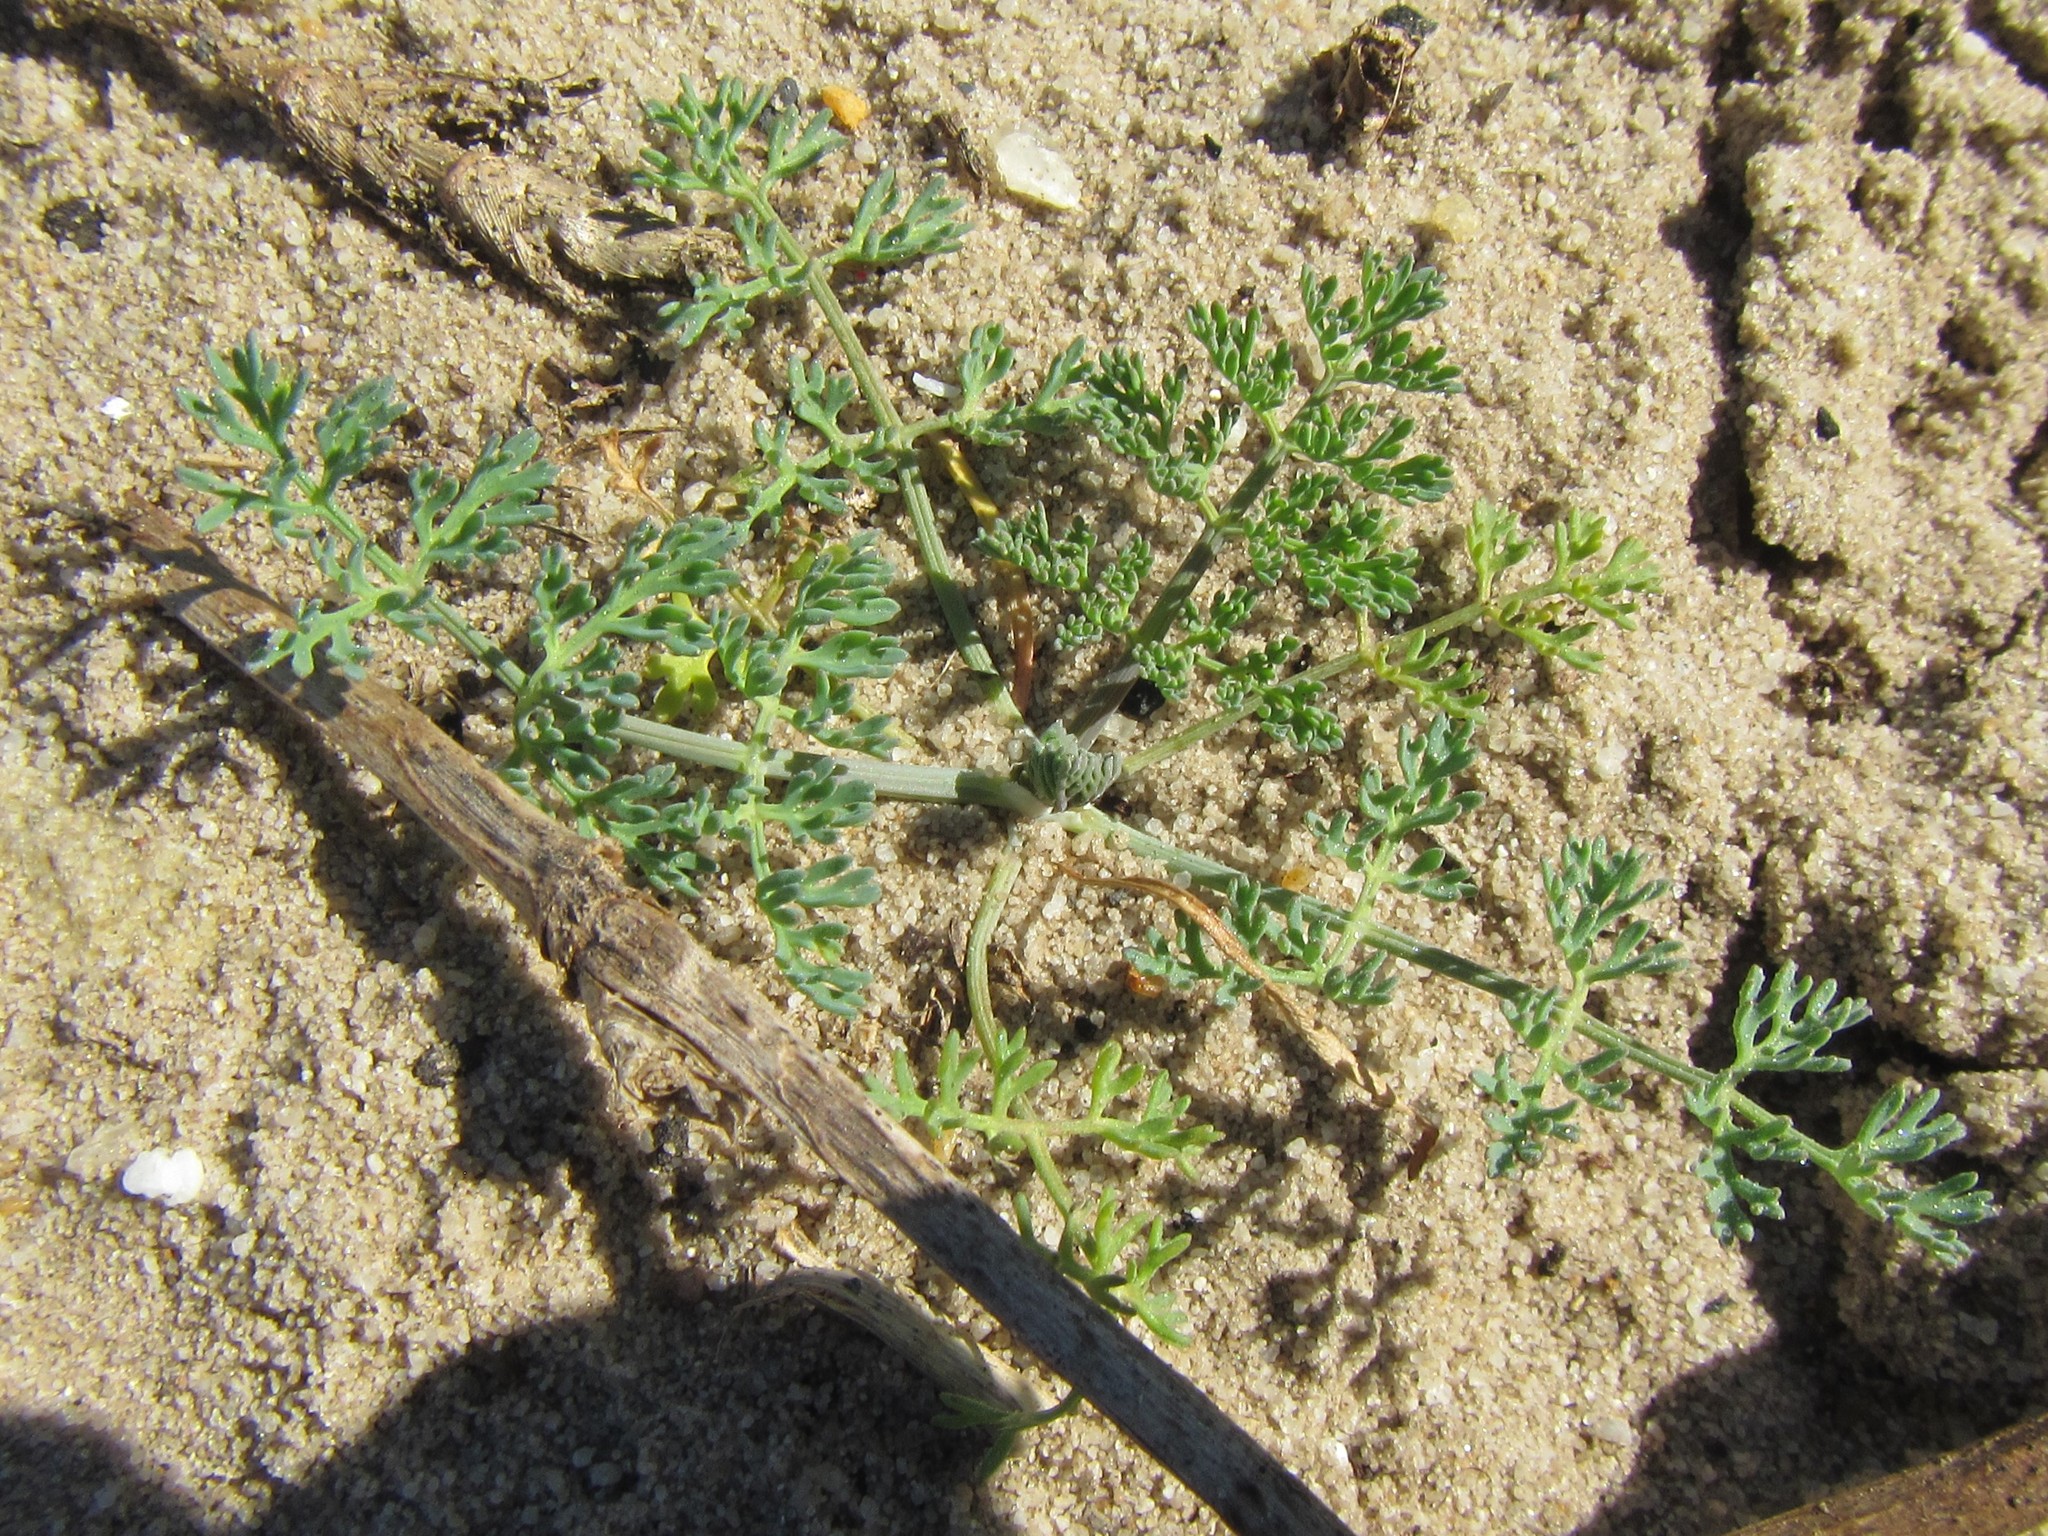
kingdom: Plantae
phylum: Tracheophyta
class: Magnoliopsida
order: Apiales
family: Apiaceae
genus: Capnophyllum
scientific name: Capnophyllum africanum
